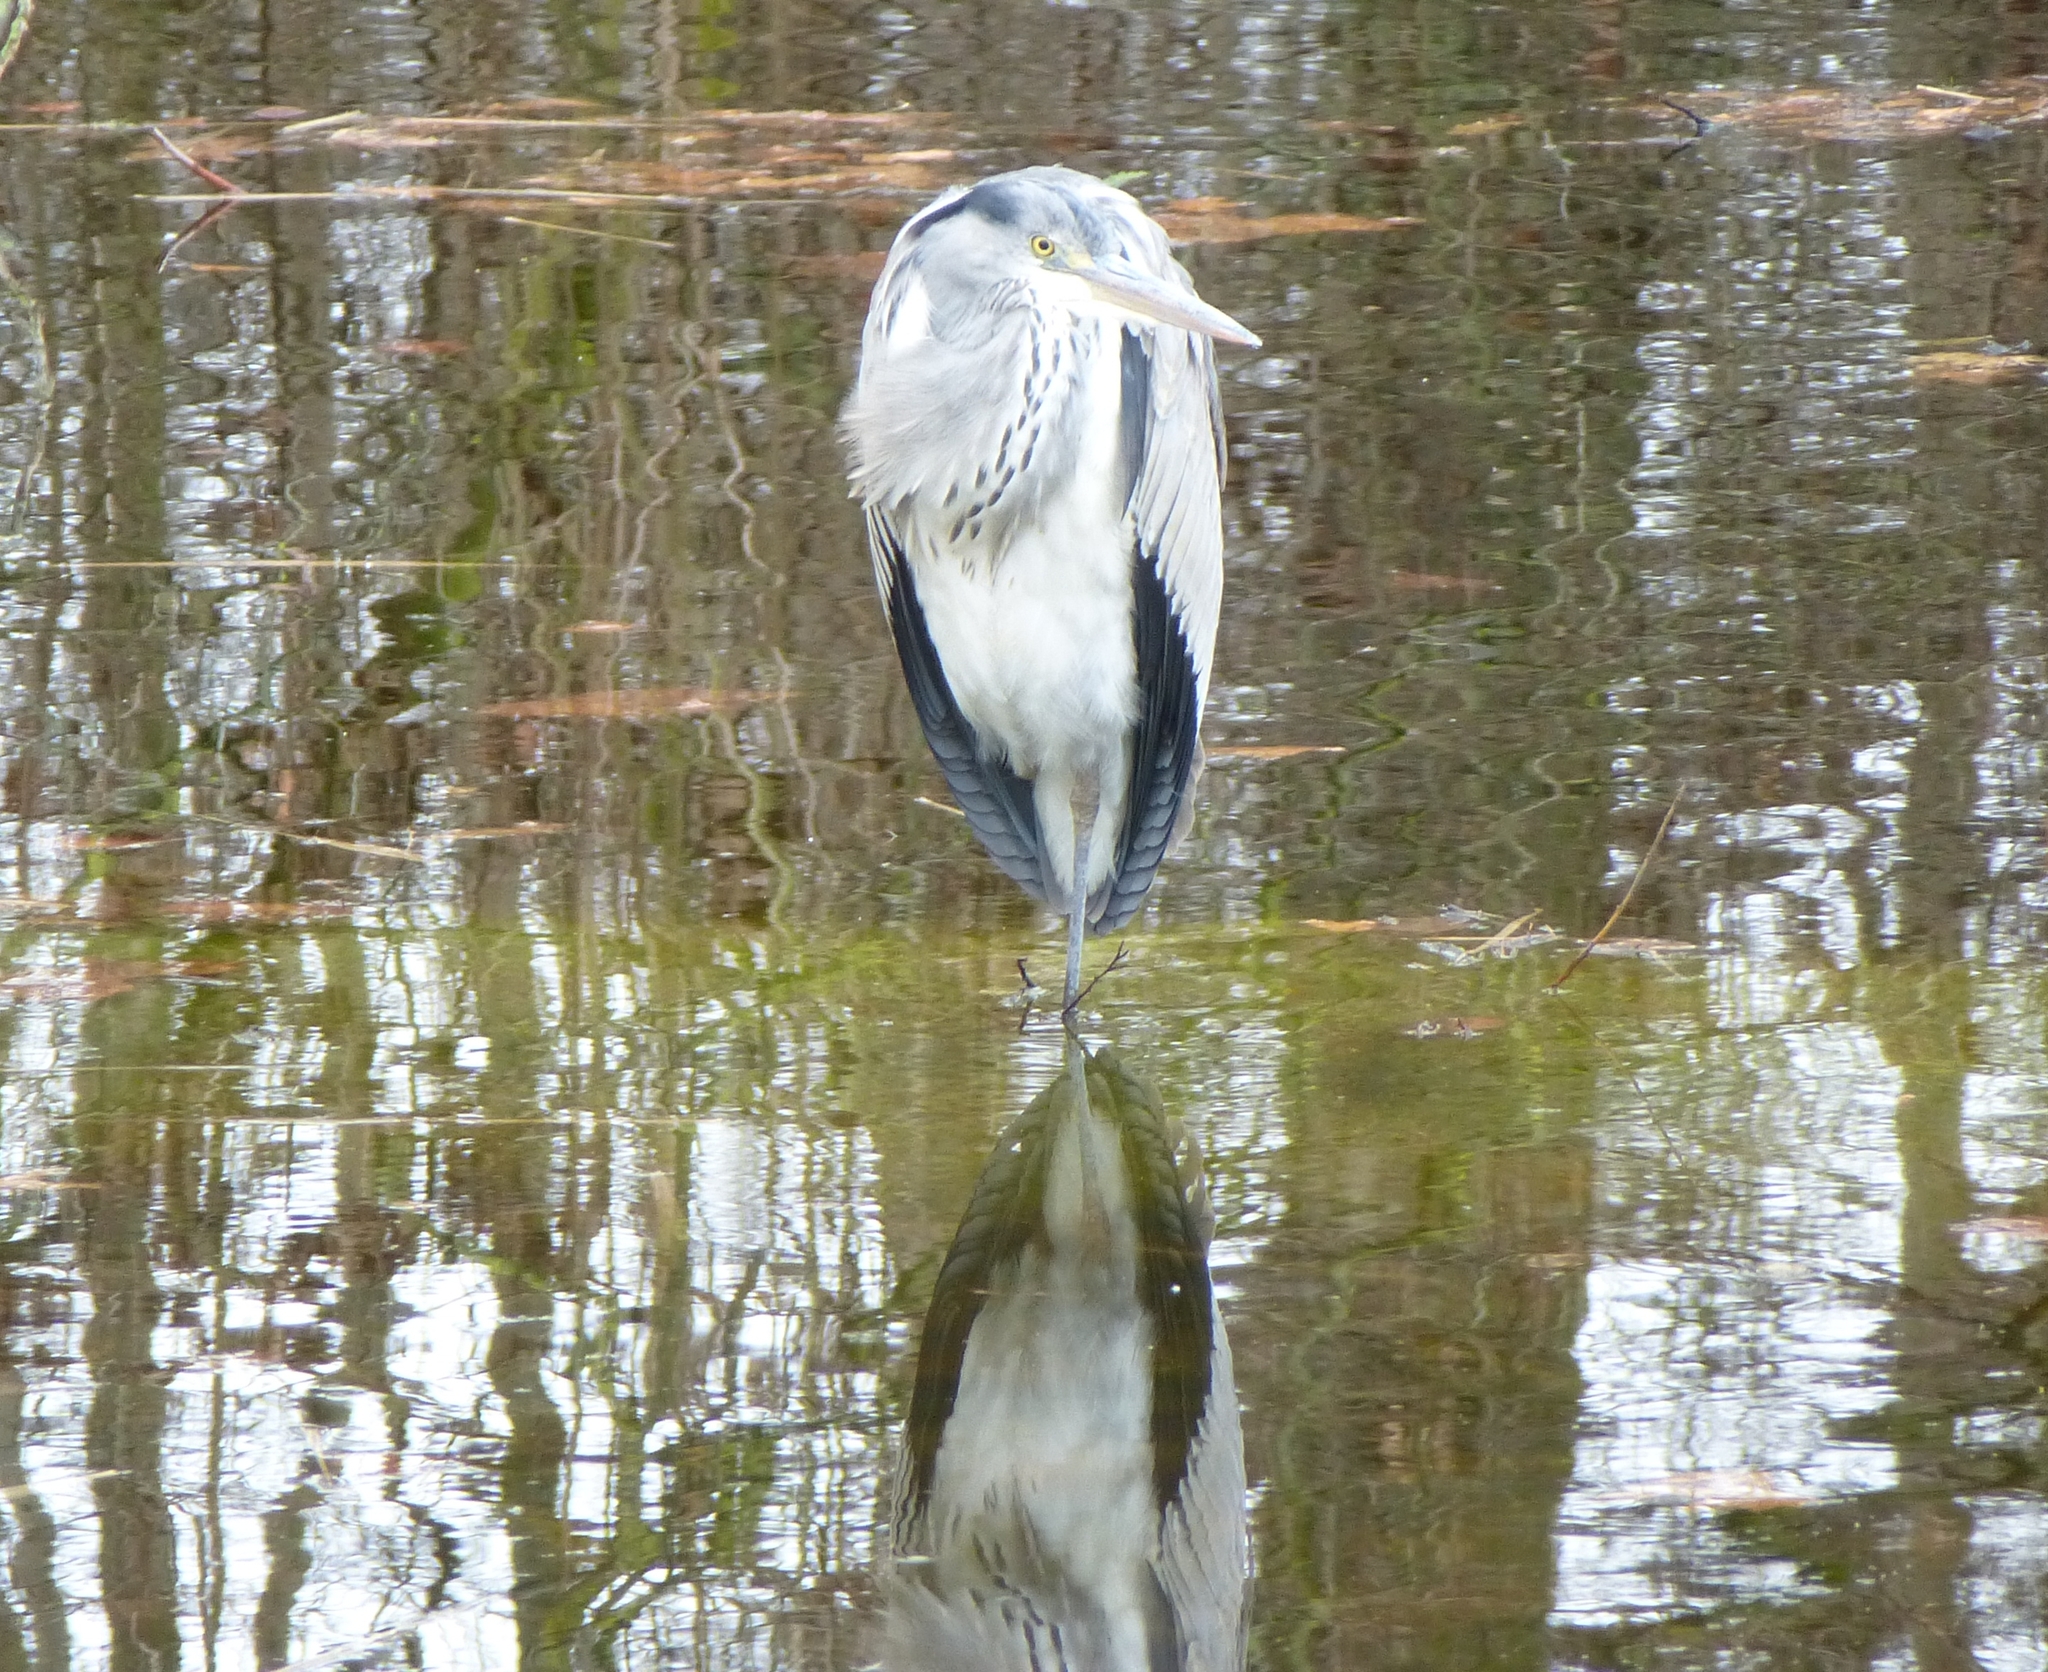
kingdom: Animalia
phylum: Chordata
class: Aves
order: Pelecaniformes
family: Ardeidae
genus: Ardea
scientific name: Ardea cinerea
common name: Grey heron
